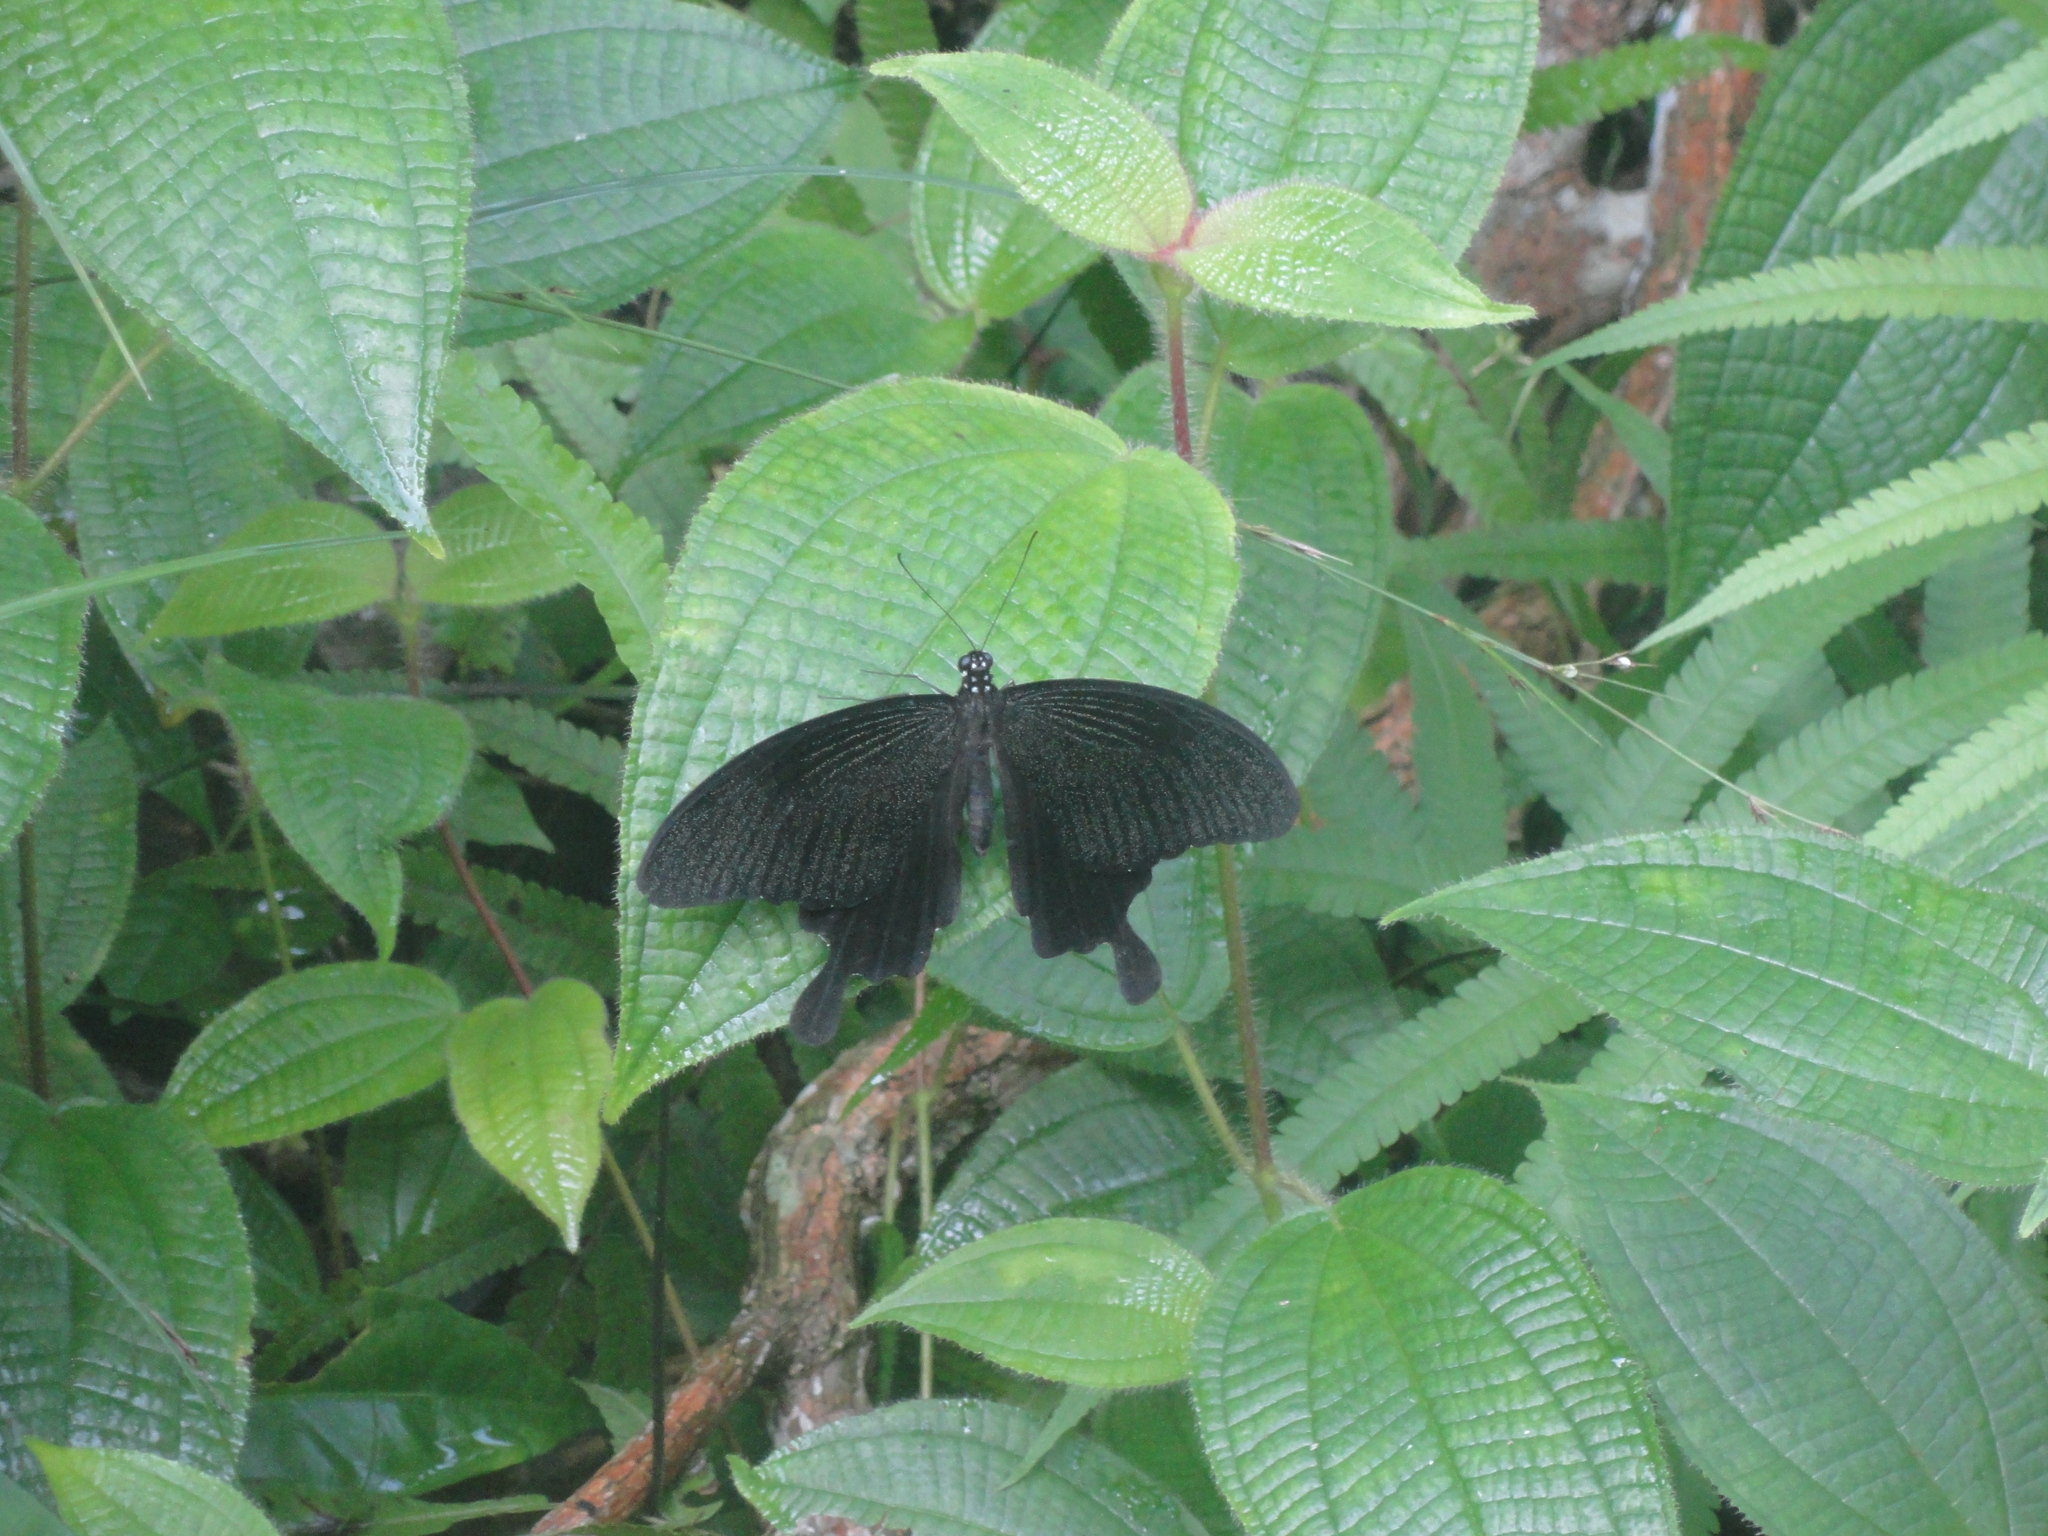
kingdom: Animalia
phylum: Arthropoda
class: Insecta
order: Lepidoptera
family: Papilionidae
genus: Papilio
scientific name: Papilio nephelus
